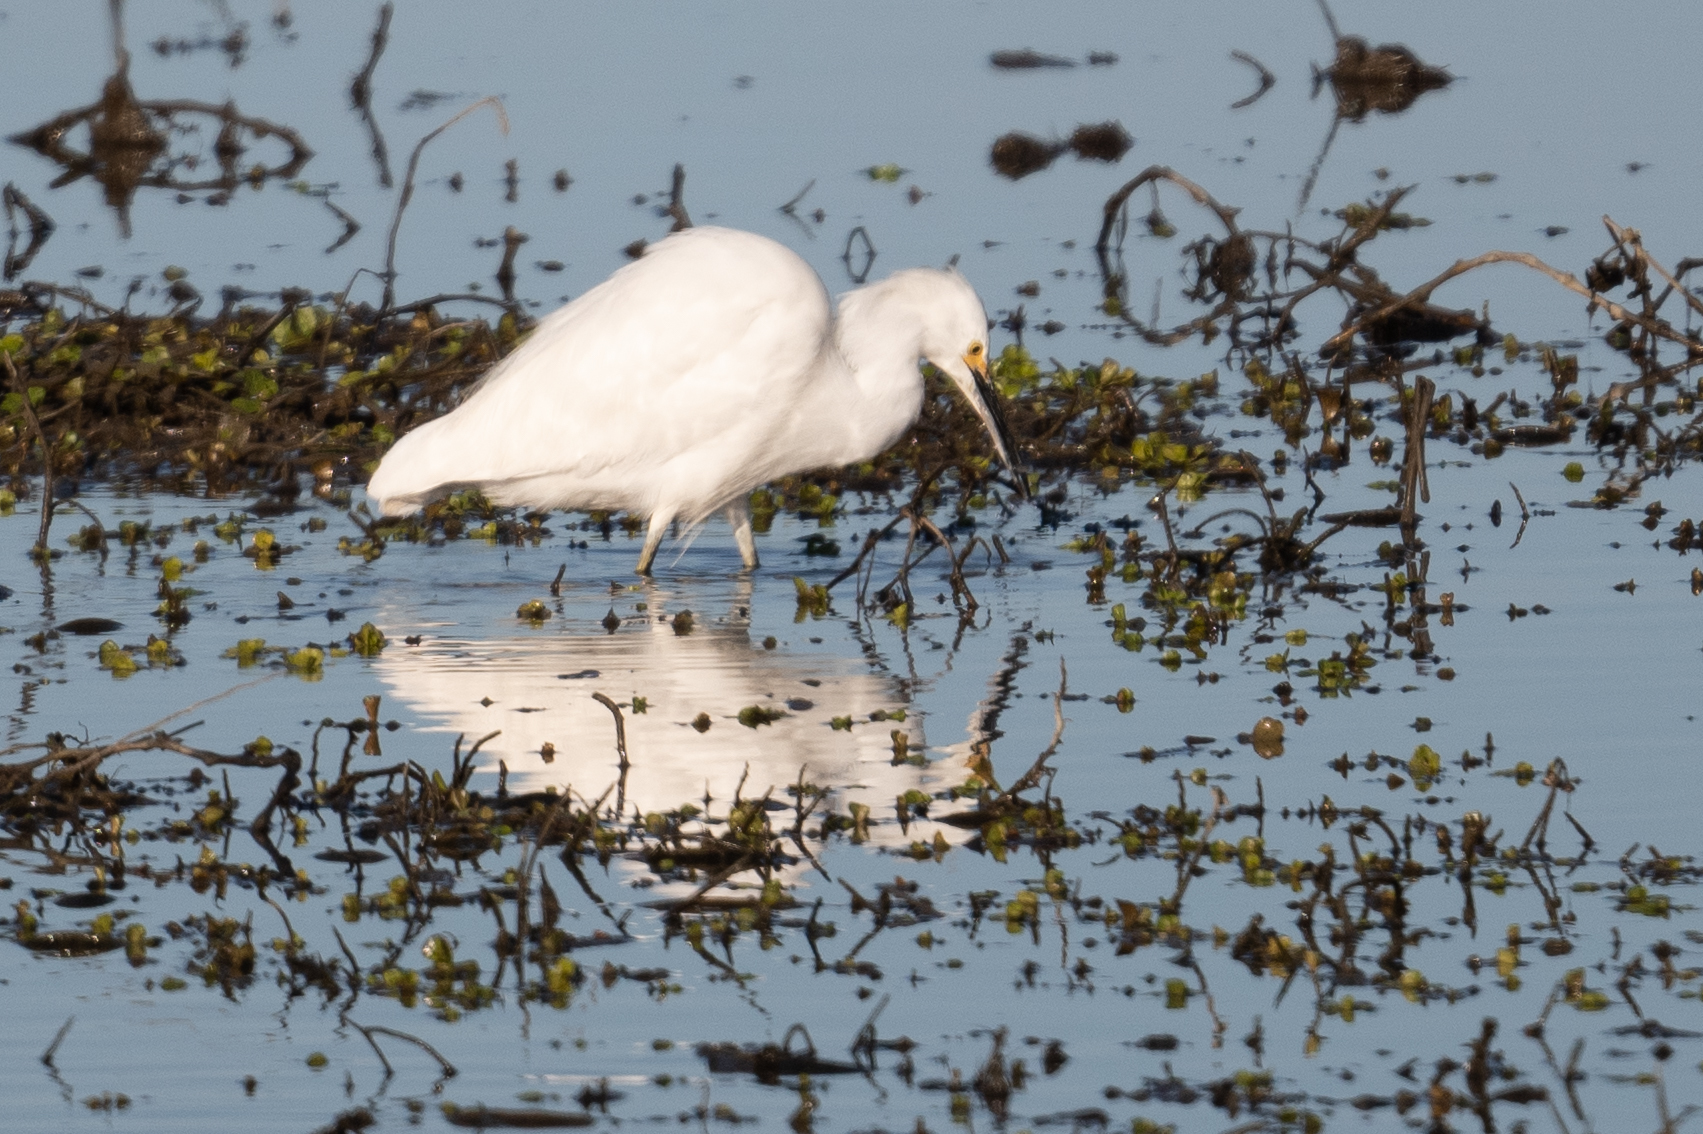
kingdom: Animalia
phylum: Chordata
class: Aves
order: Pelecaniformes
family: Ardeidae
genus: Egretta
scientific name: Egretta thula
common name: Snowy egret
